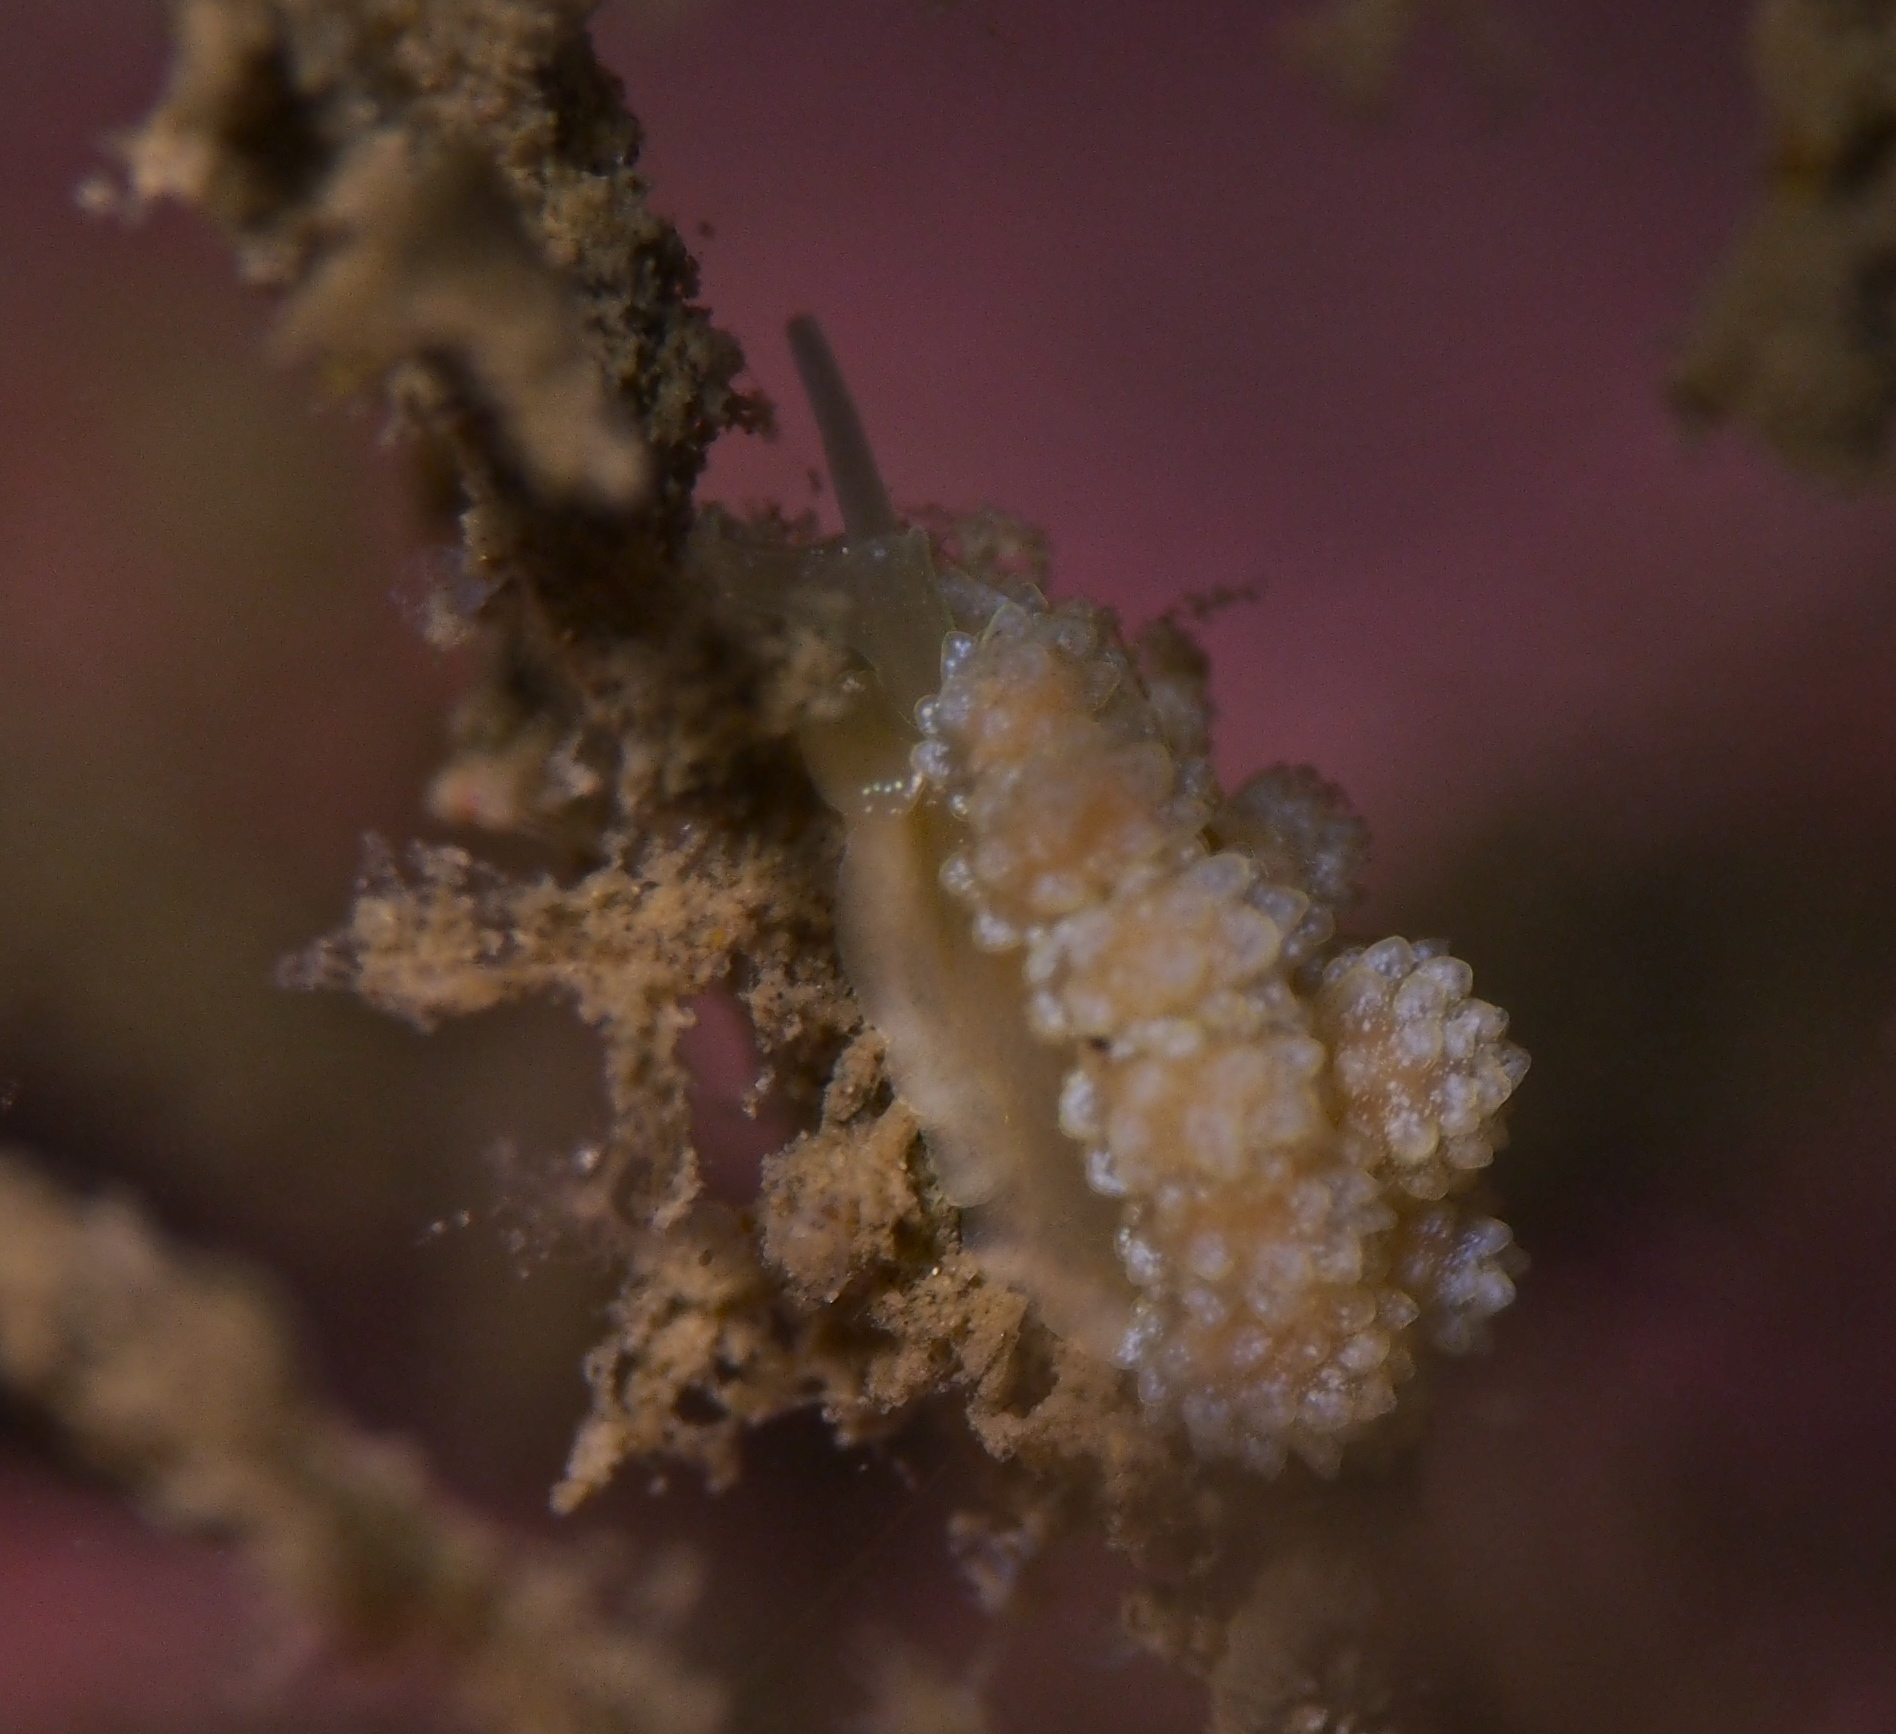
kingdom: Animalia
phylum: Mollusca
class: Gastropoda
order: Nudibranchia
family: Dotidae
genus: Doto
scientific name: Doto fragilis
